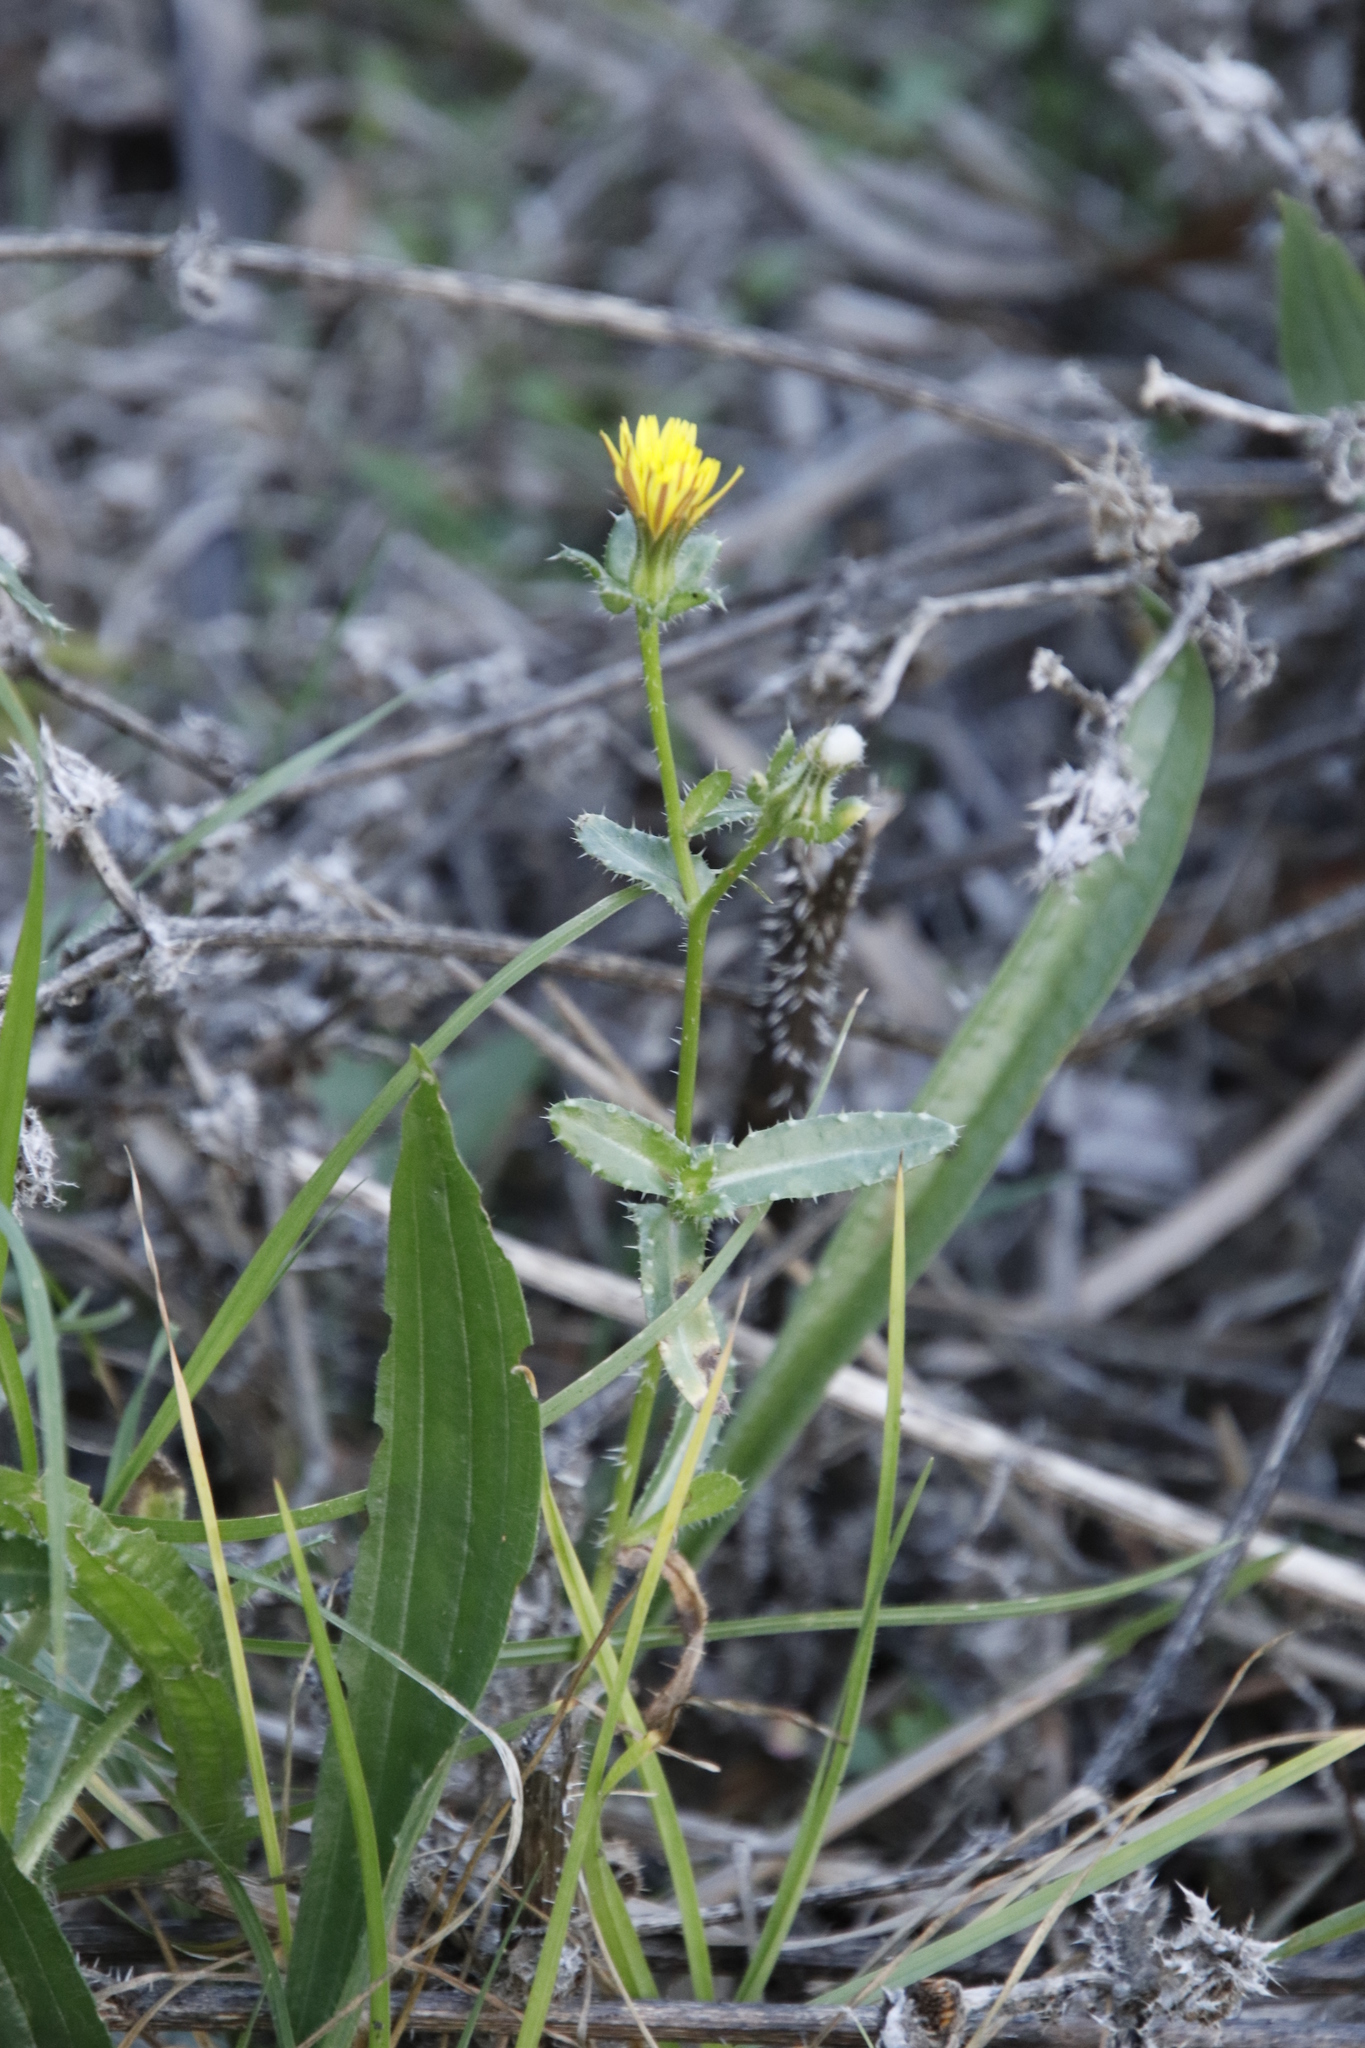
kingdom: Plantae
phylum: Tracheophyta
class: Magnoliopsida
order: Asterales
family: Asteraceae
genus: Helminthotheca
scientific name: Helminthotheca echioides
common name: Ox-tongue
